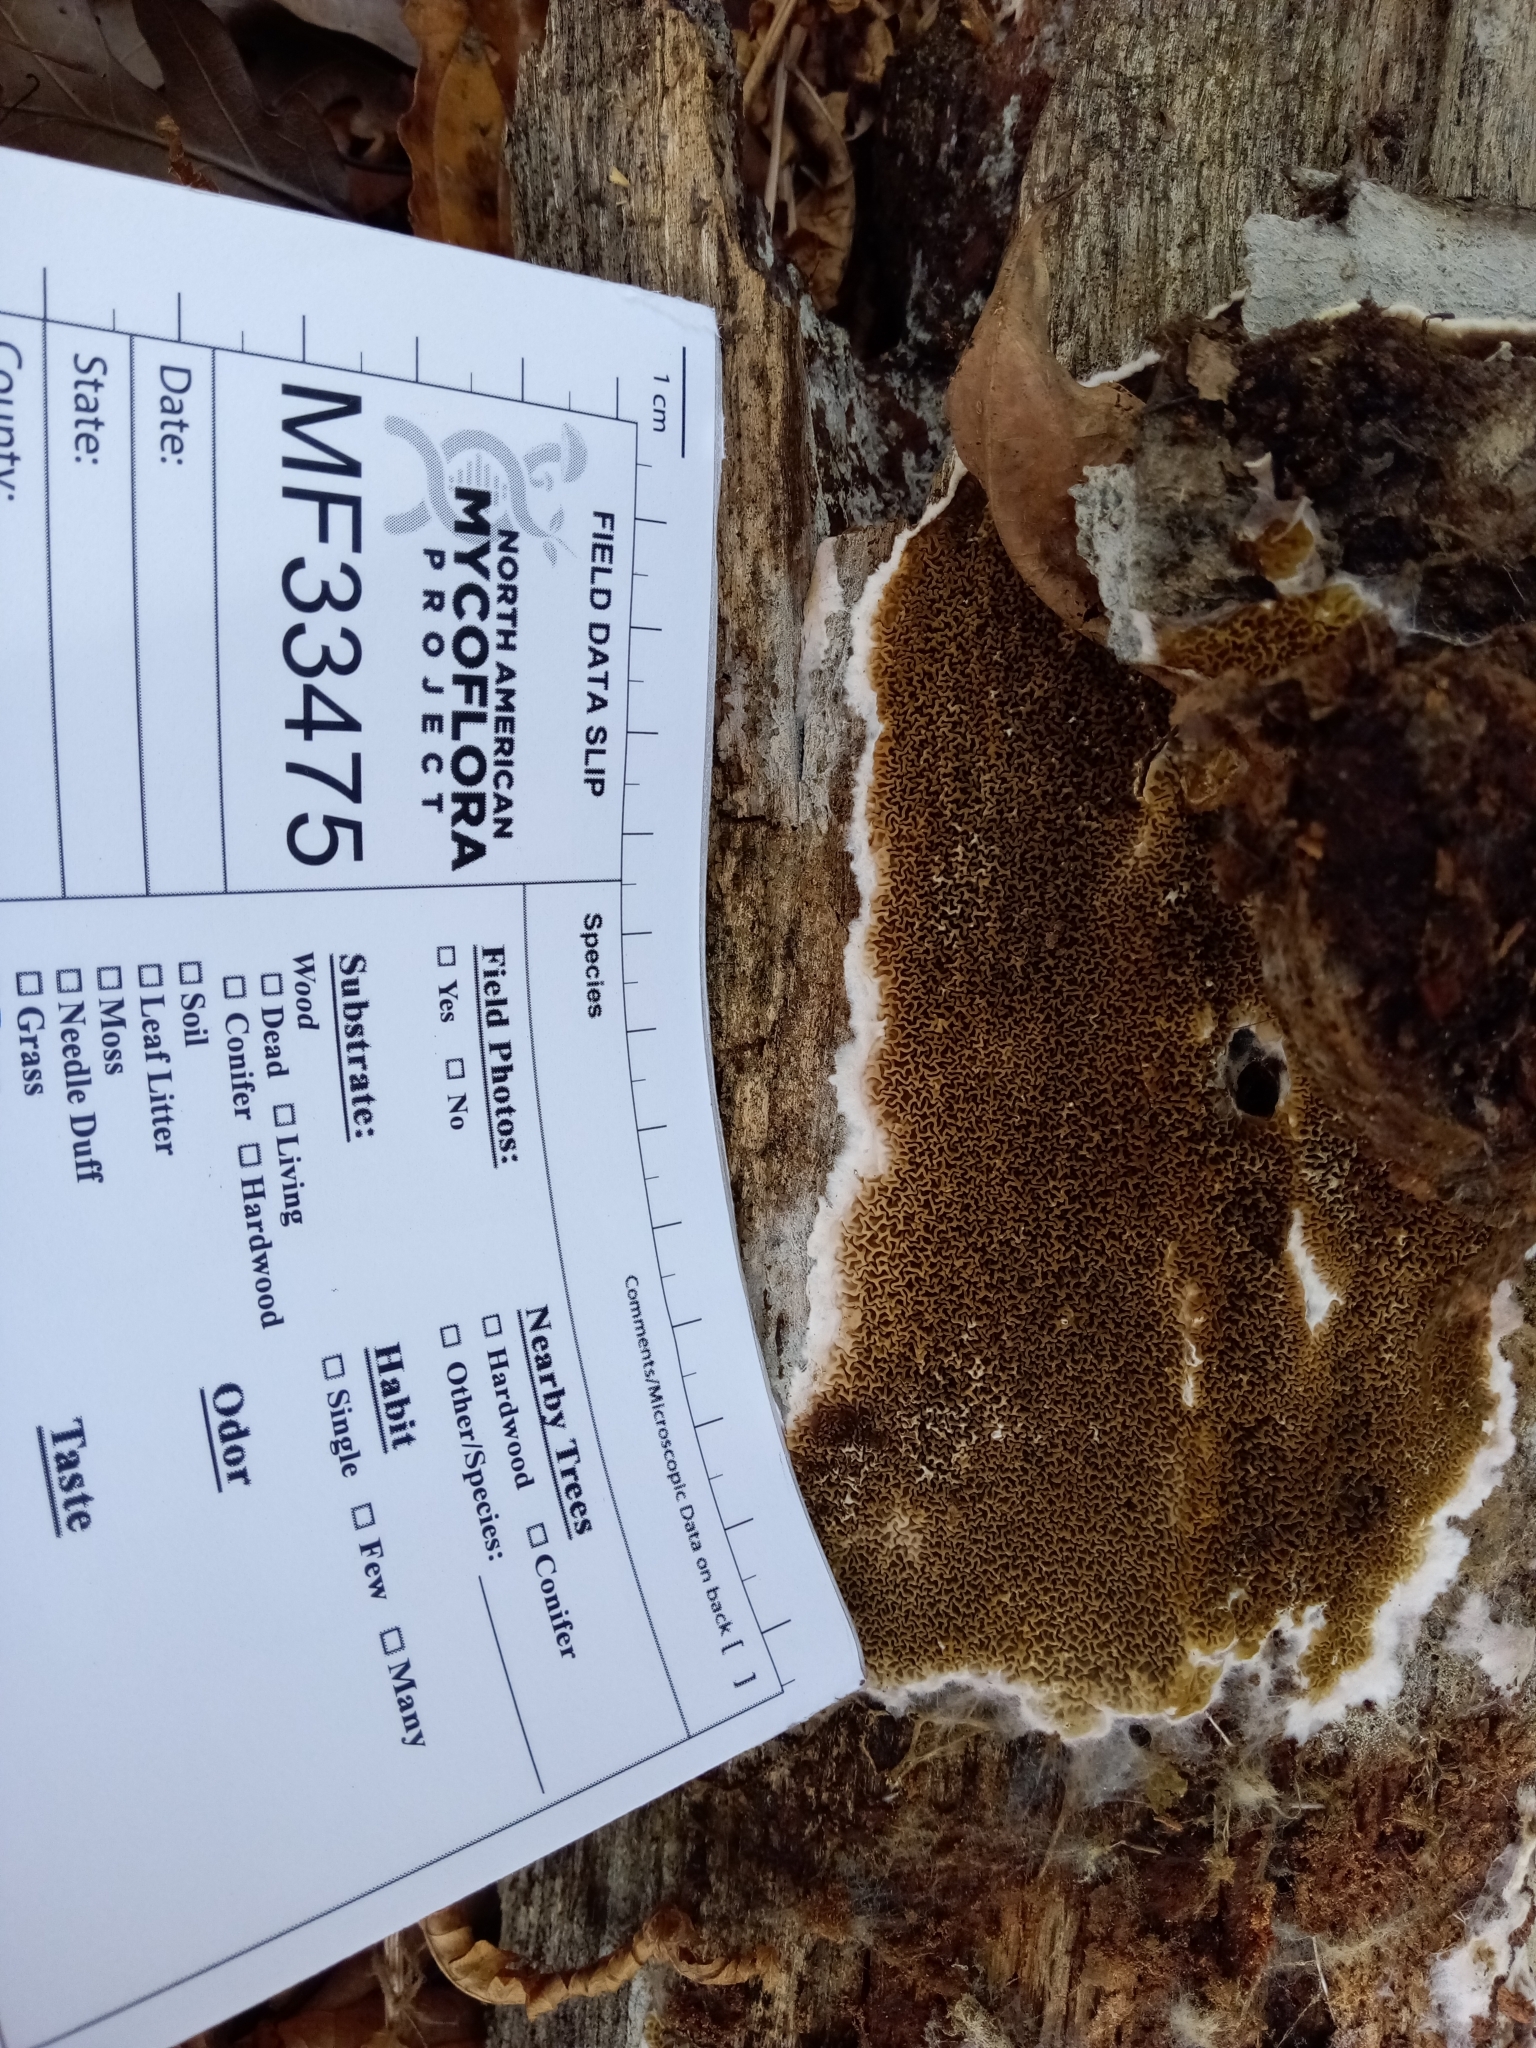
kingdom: Fungi
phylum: Basidiomycota
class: Agaricomycetes
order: Boletales
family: Serpulaceae
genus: Serpula
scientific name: Serpula himantioides
